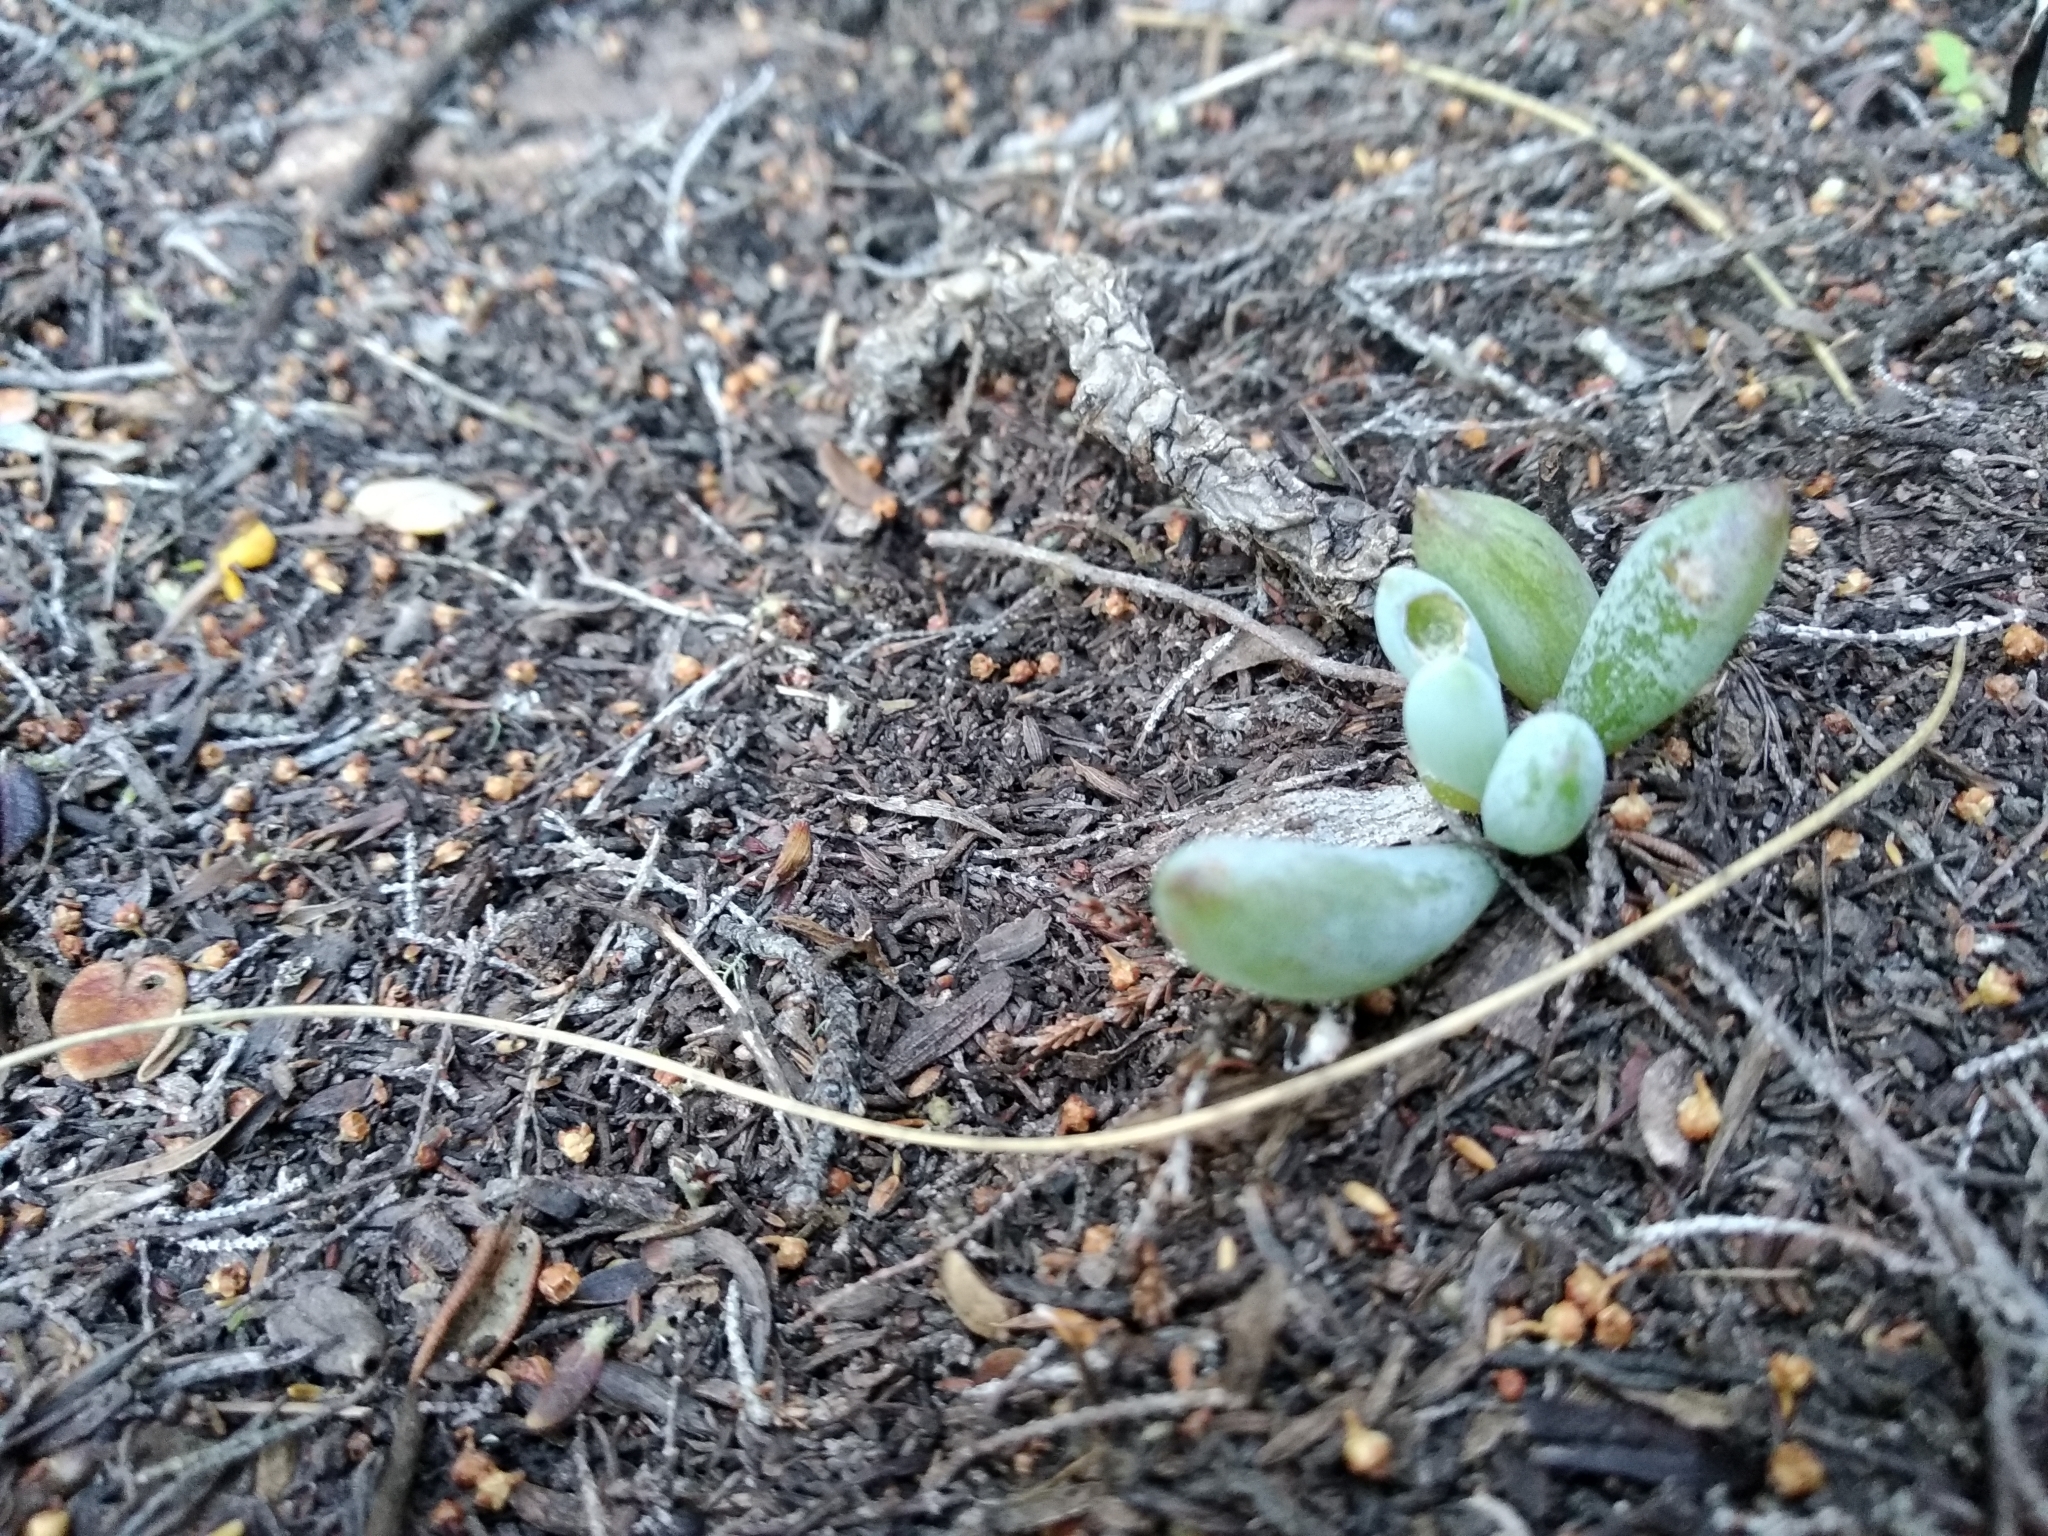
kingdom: Plantae
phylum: Tracheophyta
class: Magnoliopsida
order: Asterales
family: Asteraceae
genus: Curio
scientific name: Curio crassulifolius
